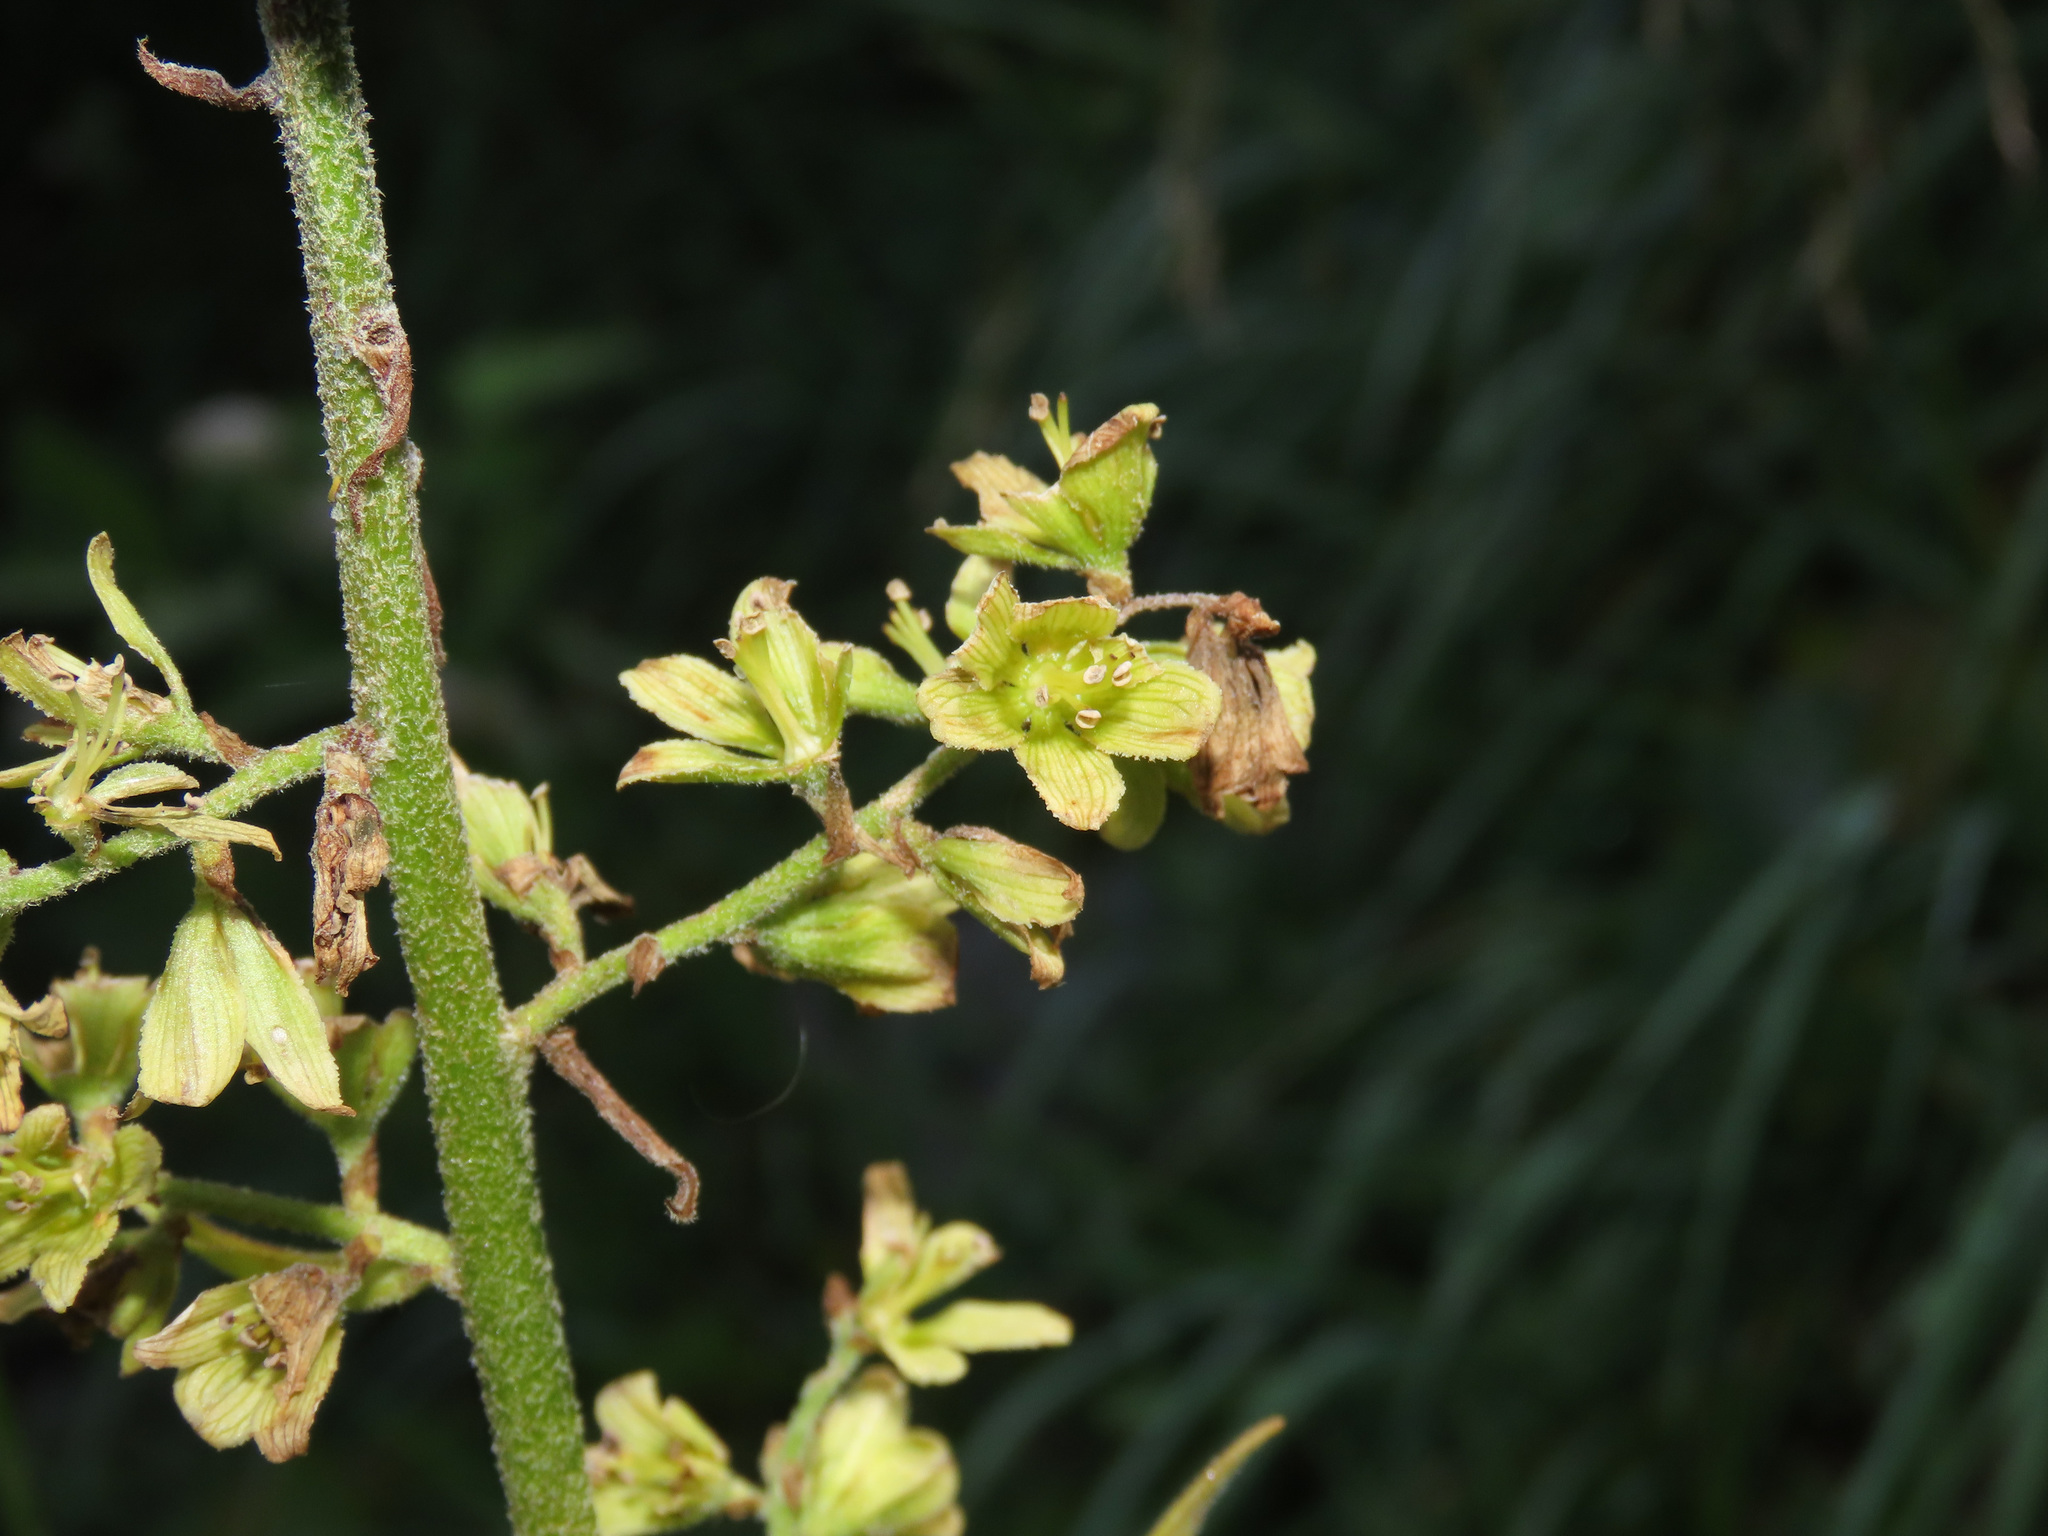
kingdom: Plantae
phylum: Tracheophyta
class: Liliopsida
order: Liliales
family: Melanthiaceae
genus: Veratrum
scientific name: Veratrum lobelianum
